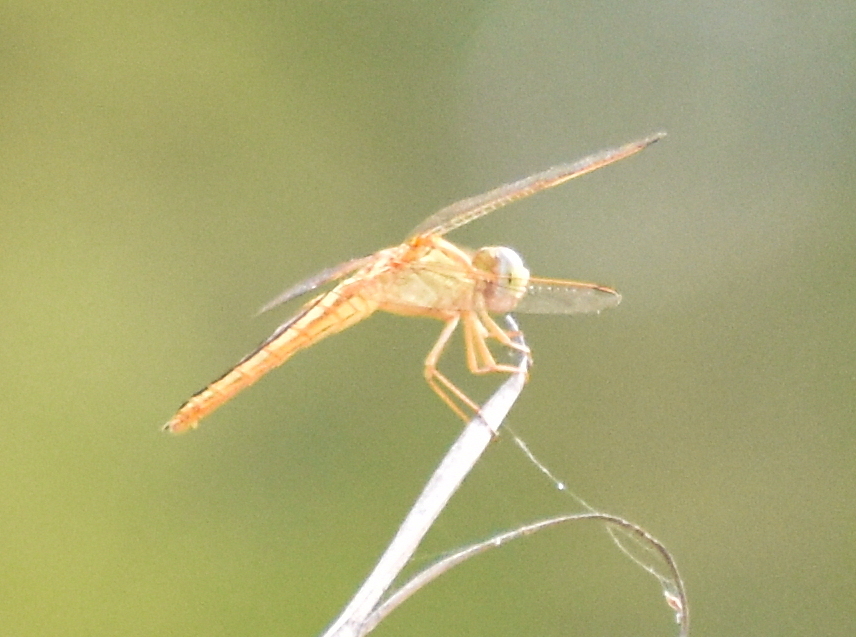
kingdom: Animalia
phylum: Arthropoda
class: Insecta
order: Odonata
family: Libellulidae
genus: Crocothemis
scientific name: Crocothemis servilia
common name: Scarlet skimmer
